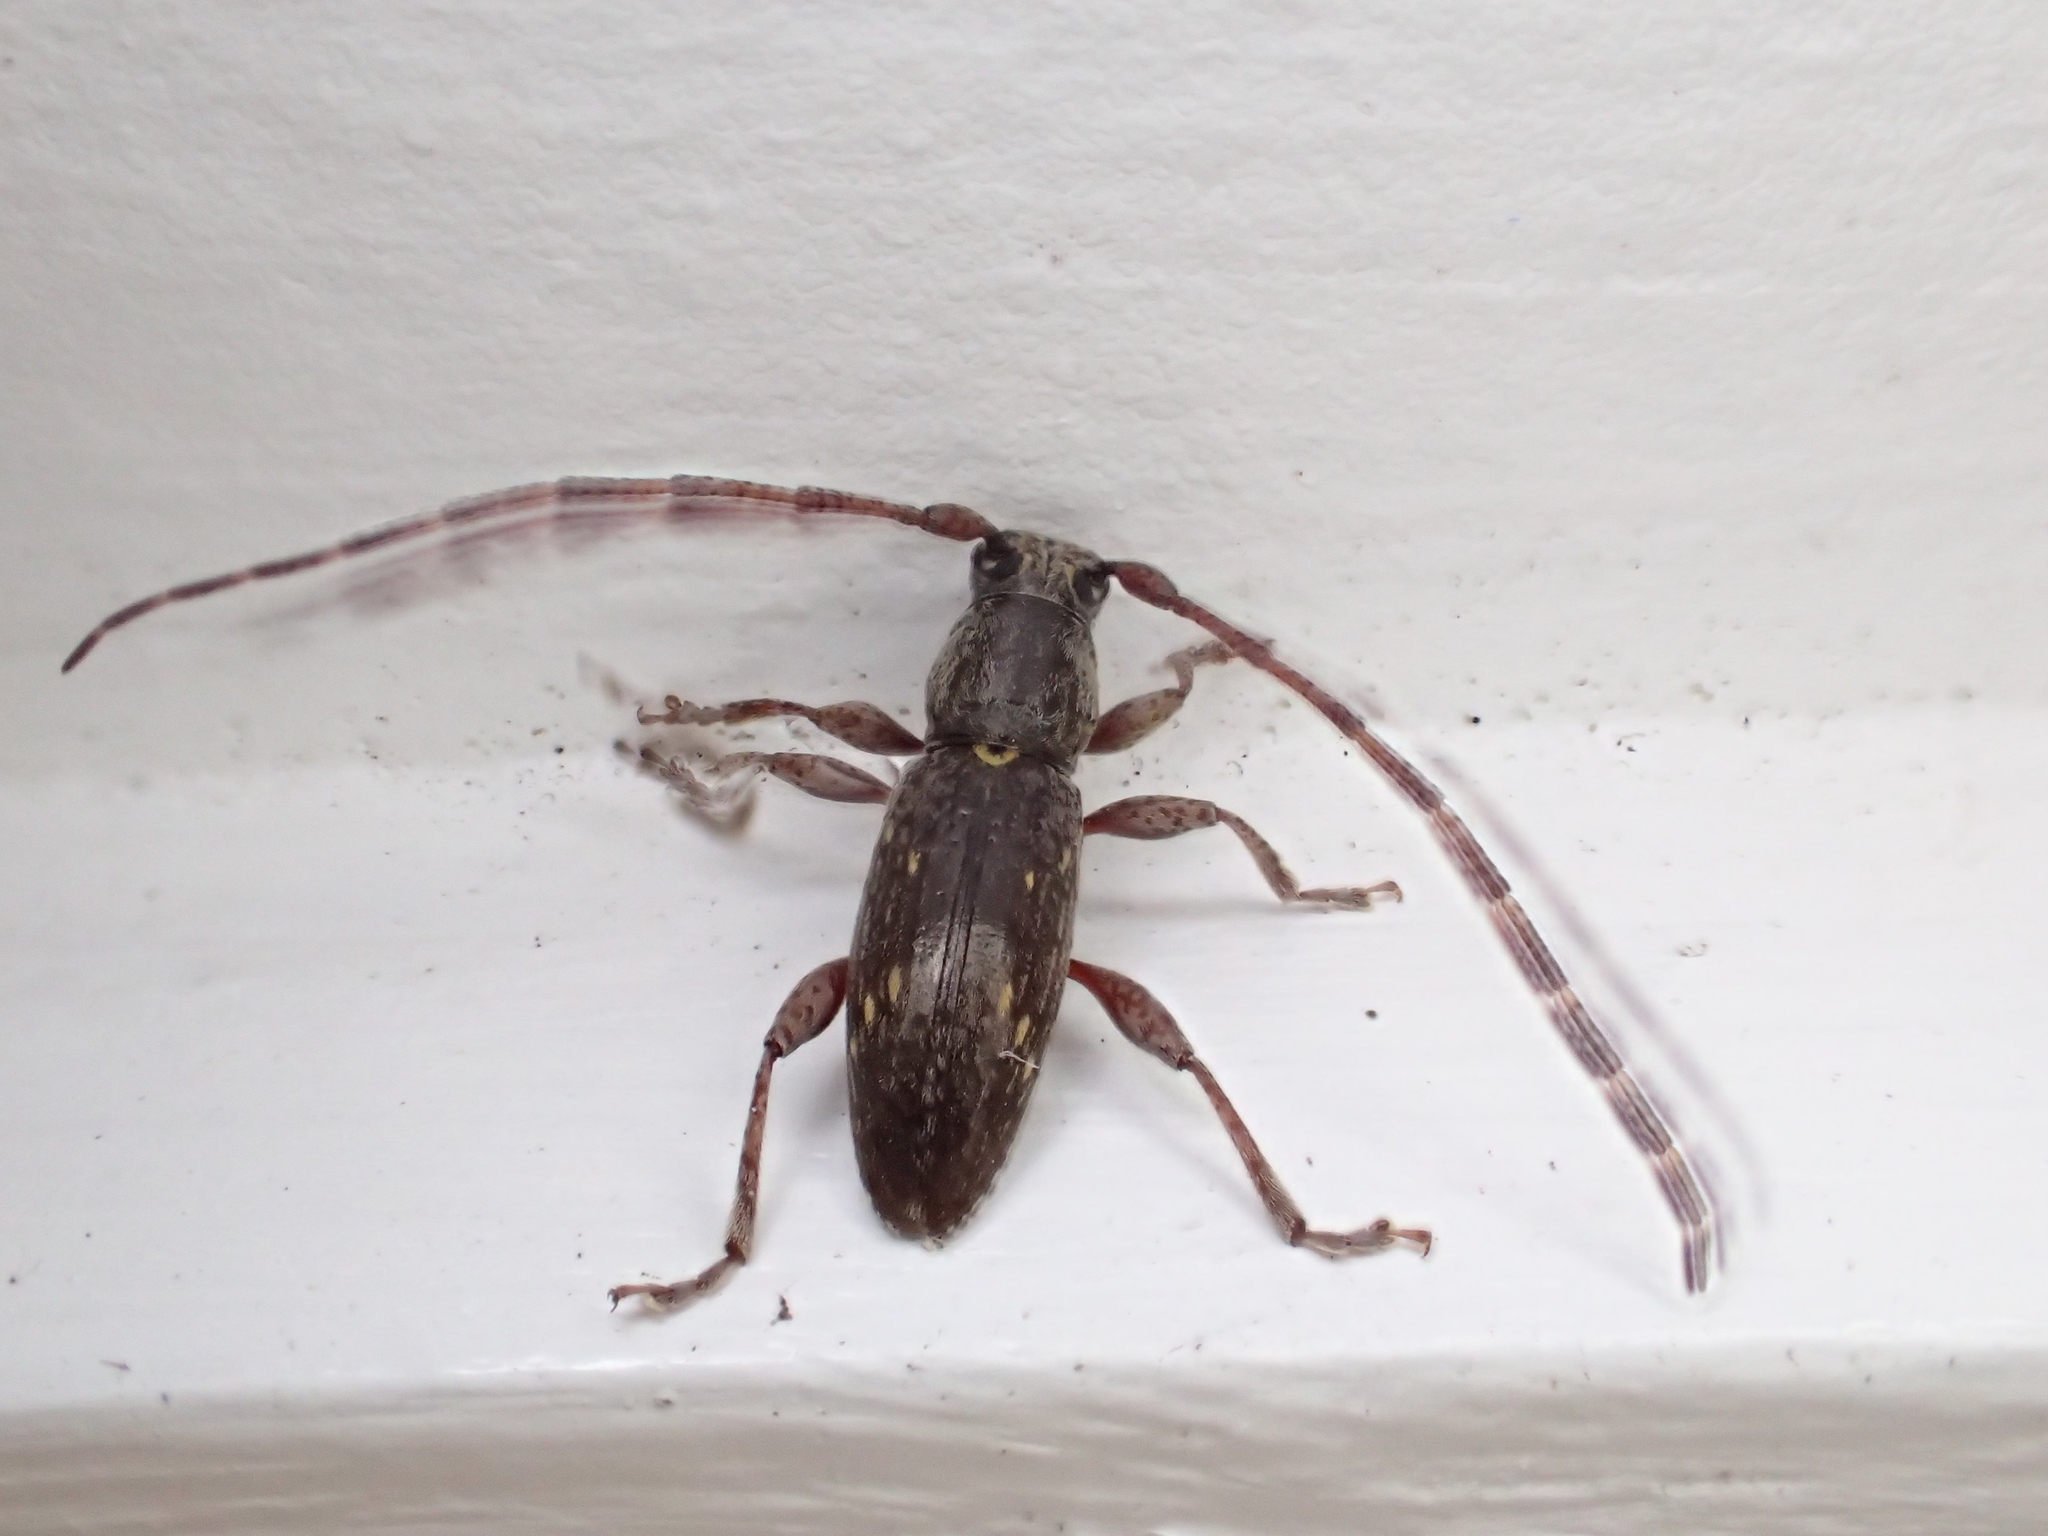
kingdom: Animalia
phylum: Arthropoda
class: Insecta
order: Coleoptera
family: Cerambycidae
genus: Xylotoles
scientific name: Xylotoles griseus
